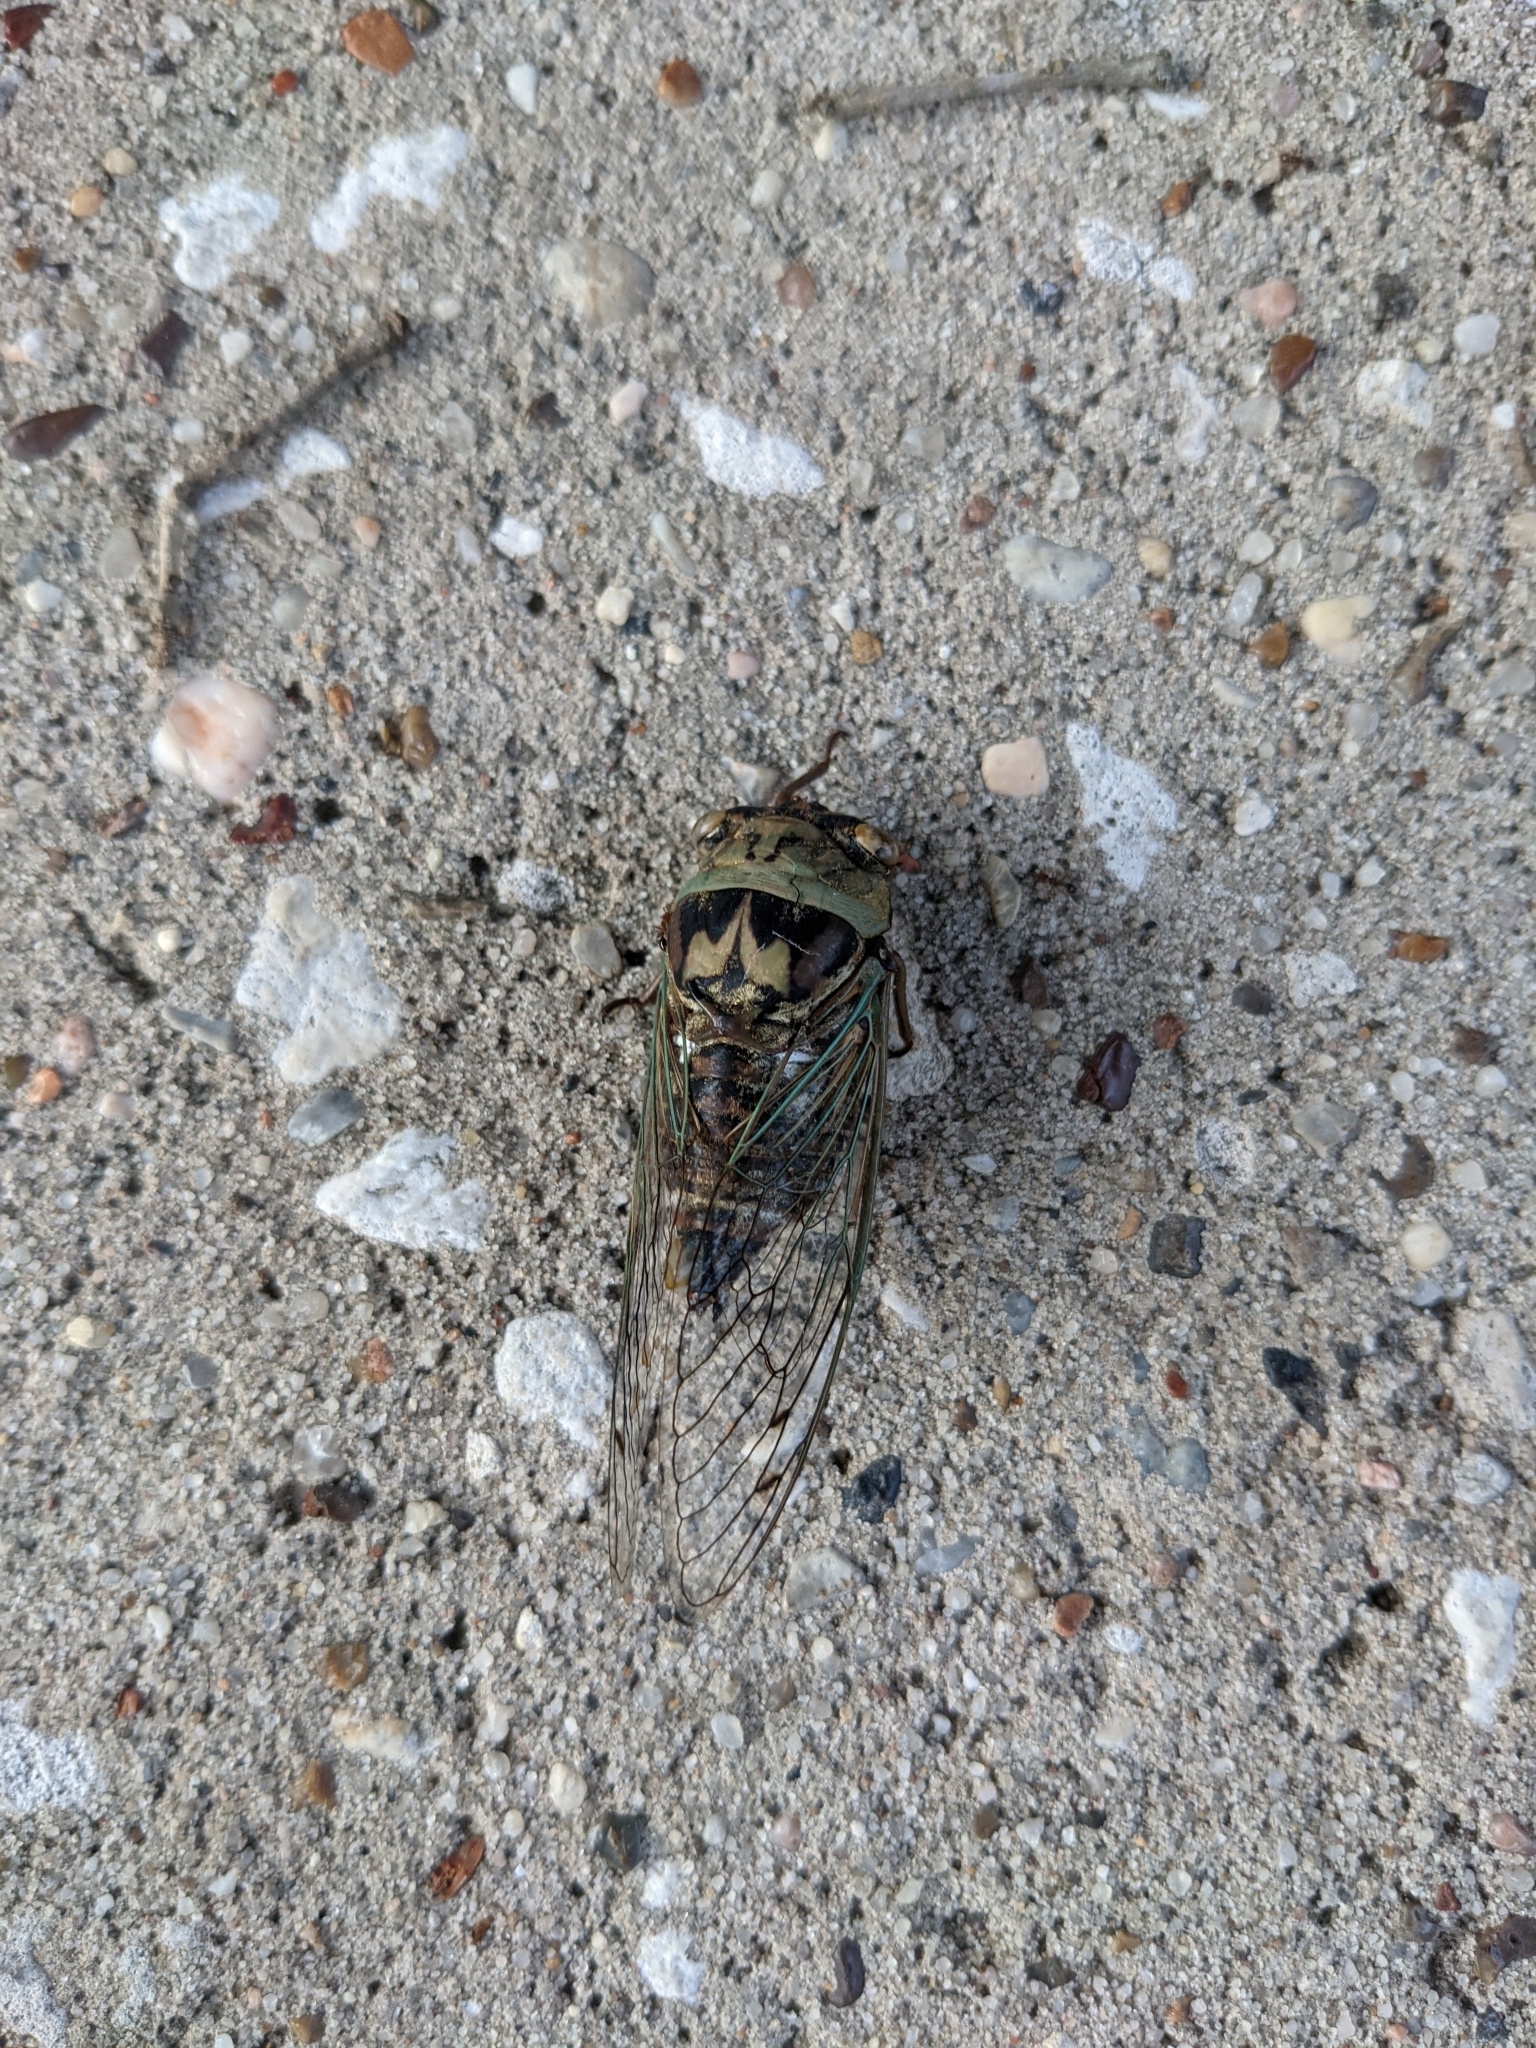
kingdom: Animalia
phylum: Arthropoda
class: Insecta
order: Hemiptera
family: Cicadidae
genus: Megatibicen
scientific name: Megatibicen resh
